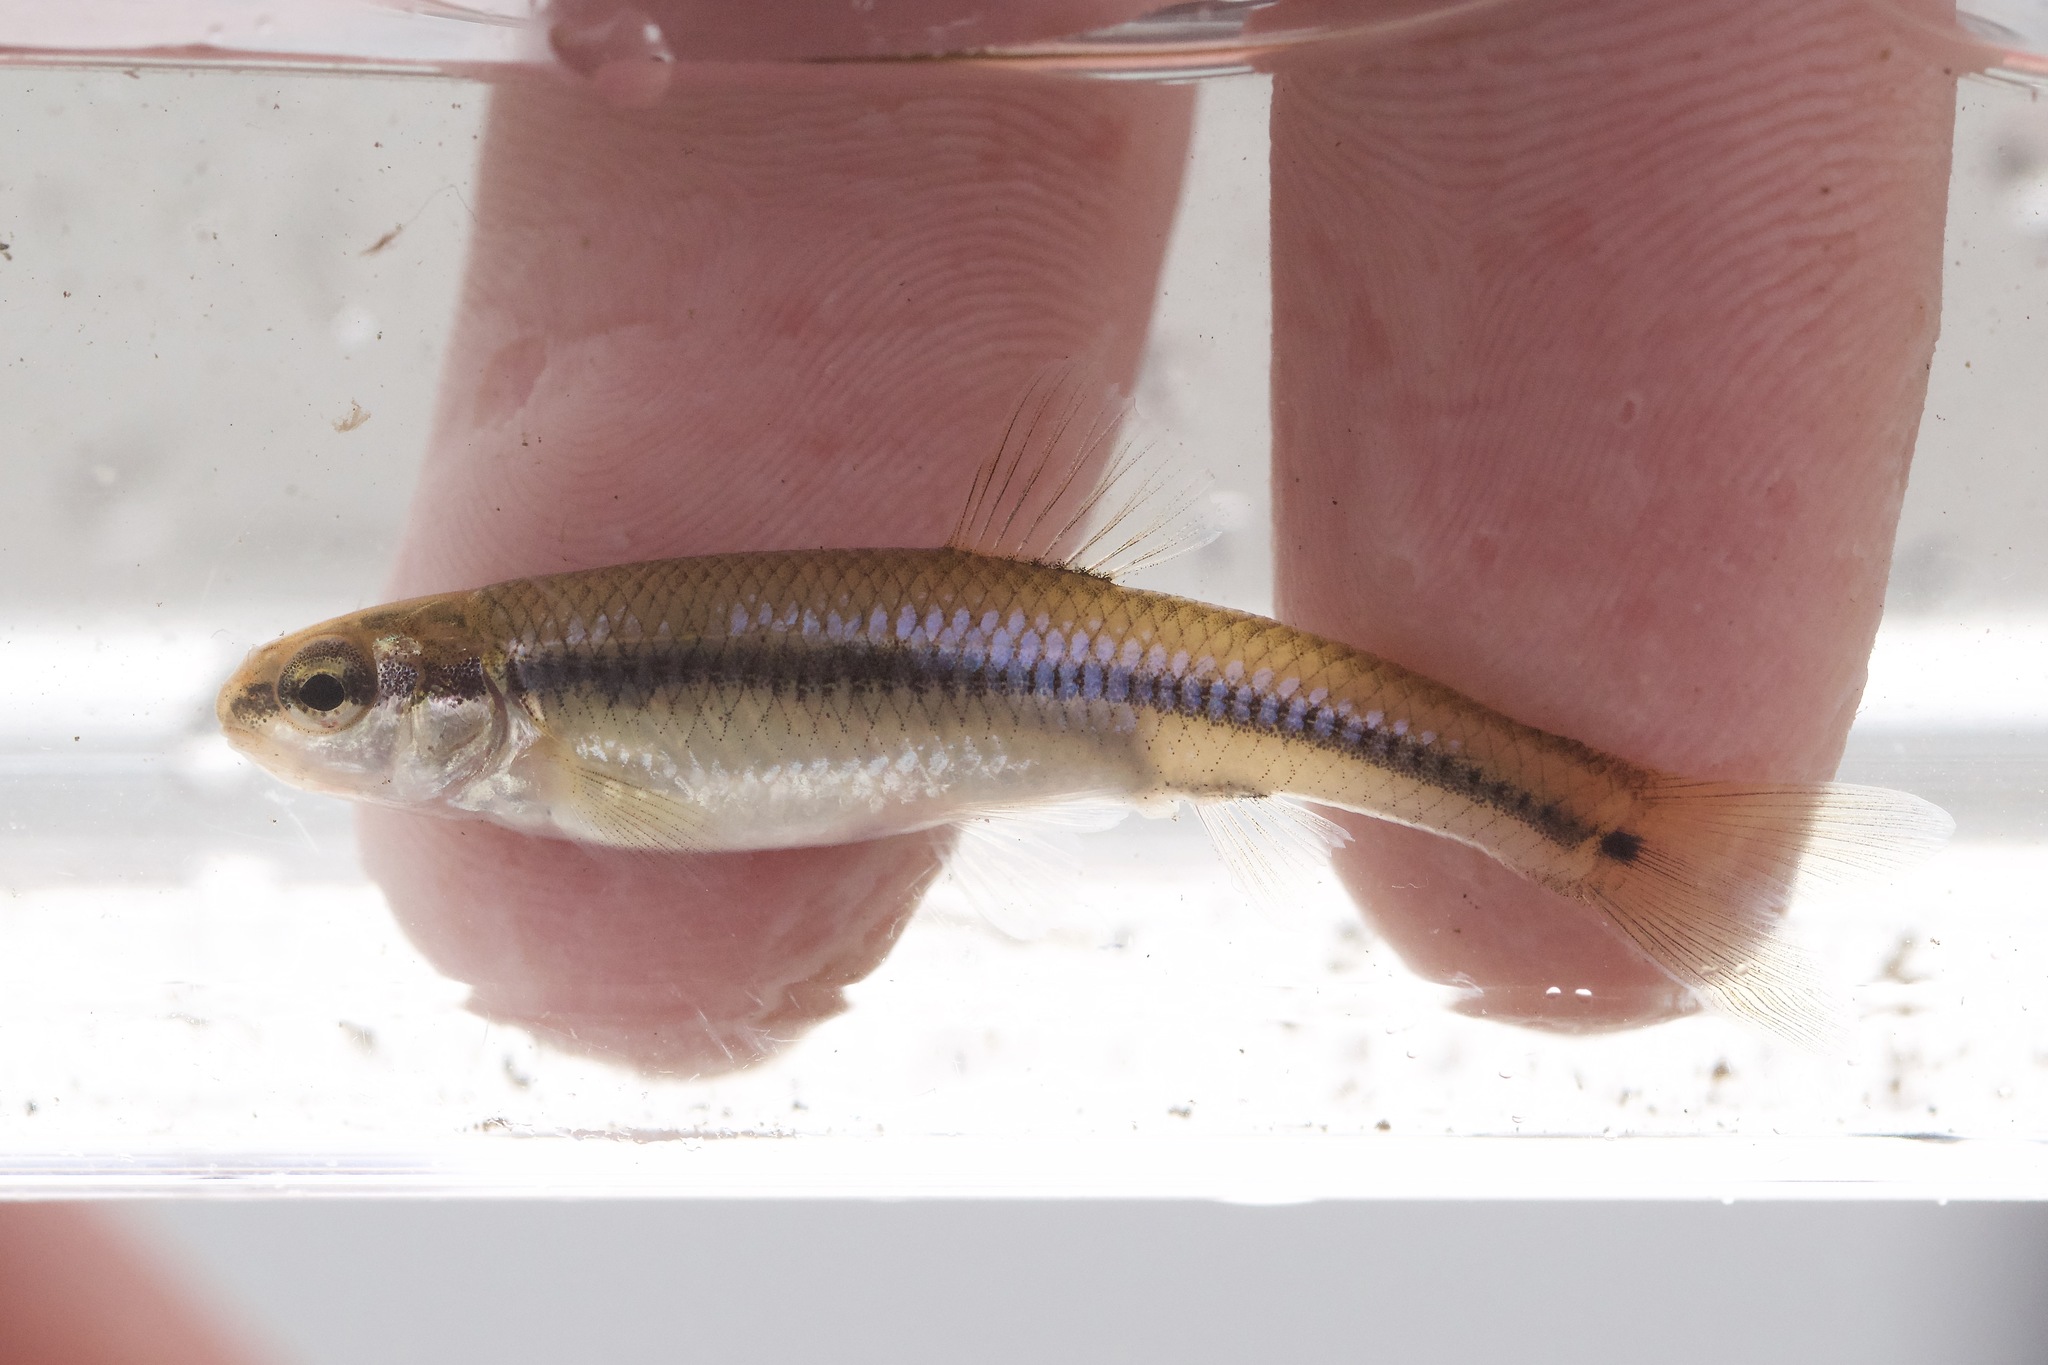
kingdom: Animalia
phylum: Chordata
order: Cypriniformes
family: Cyprinidae
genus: Pimephales
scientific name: Pimephales notatus
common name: Bluntnose minnow
